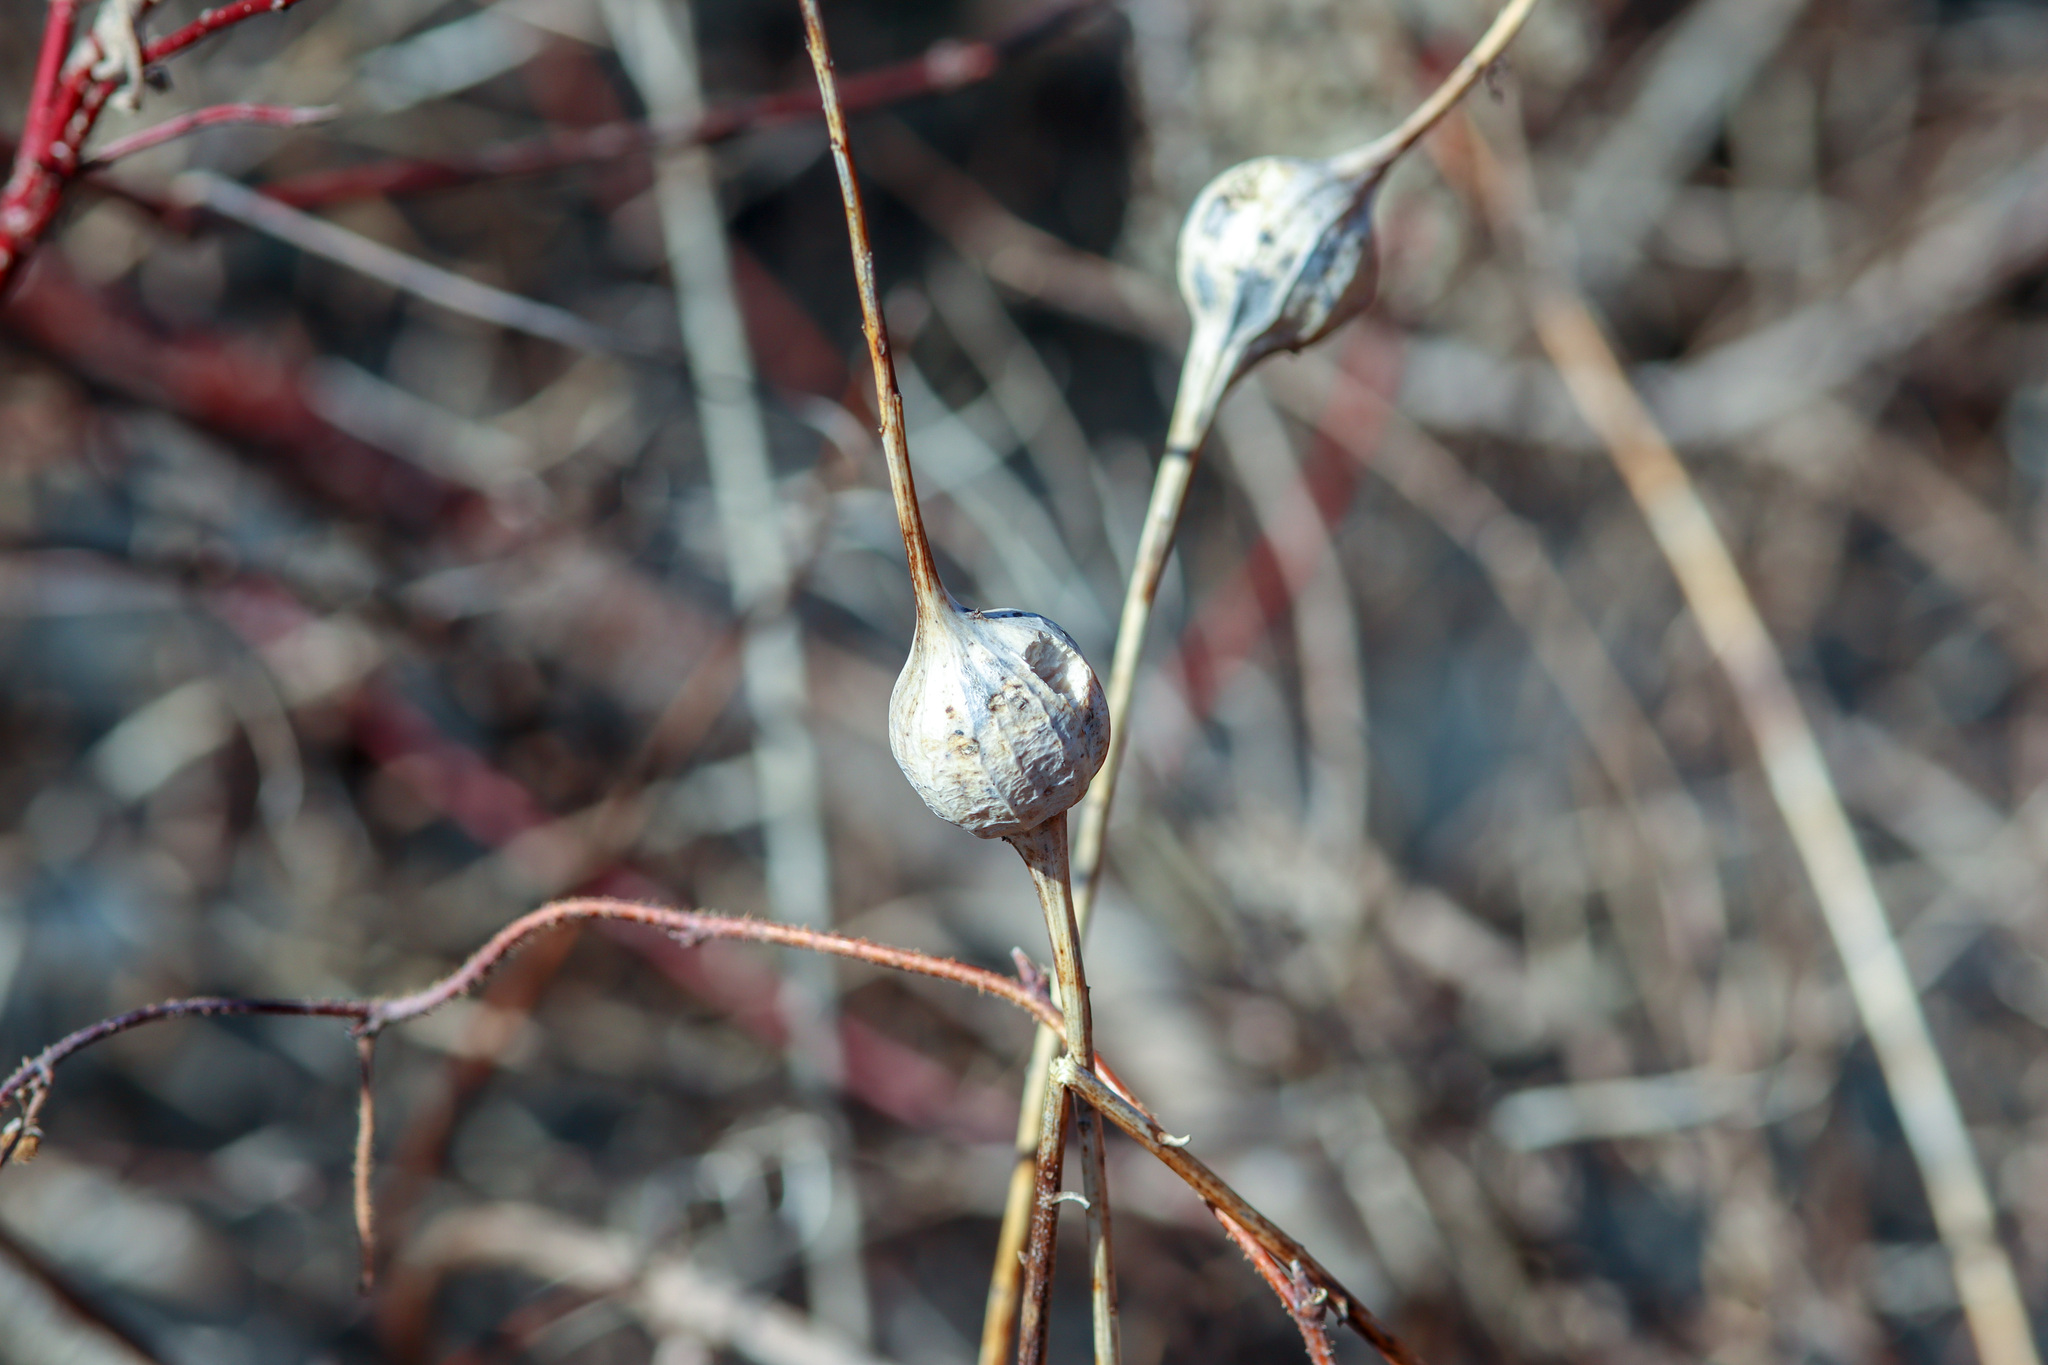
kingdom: Animalia
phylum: Arthropoda
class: Insecta
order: Diptera
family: Tephritidae
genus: Eurosta
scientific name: Eurosta solidaginis
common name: Goldenrod gall fly
